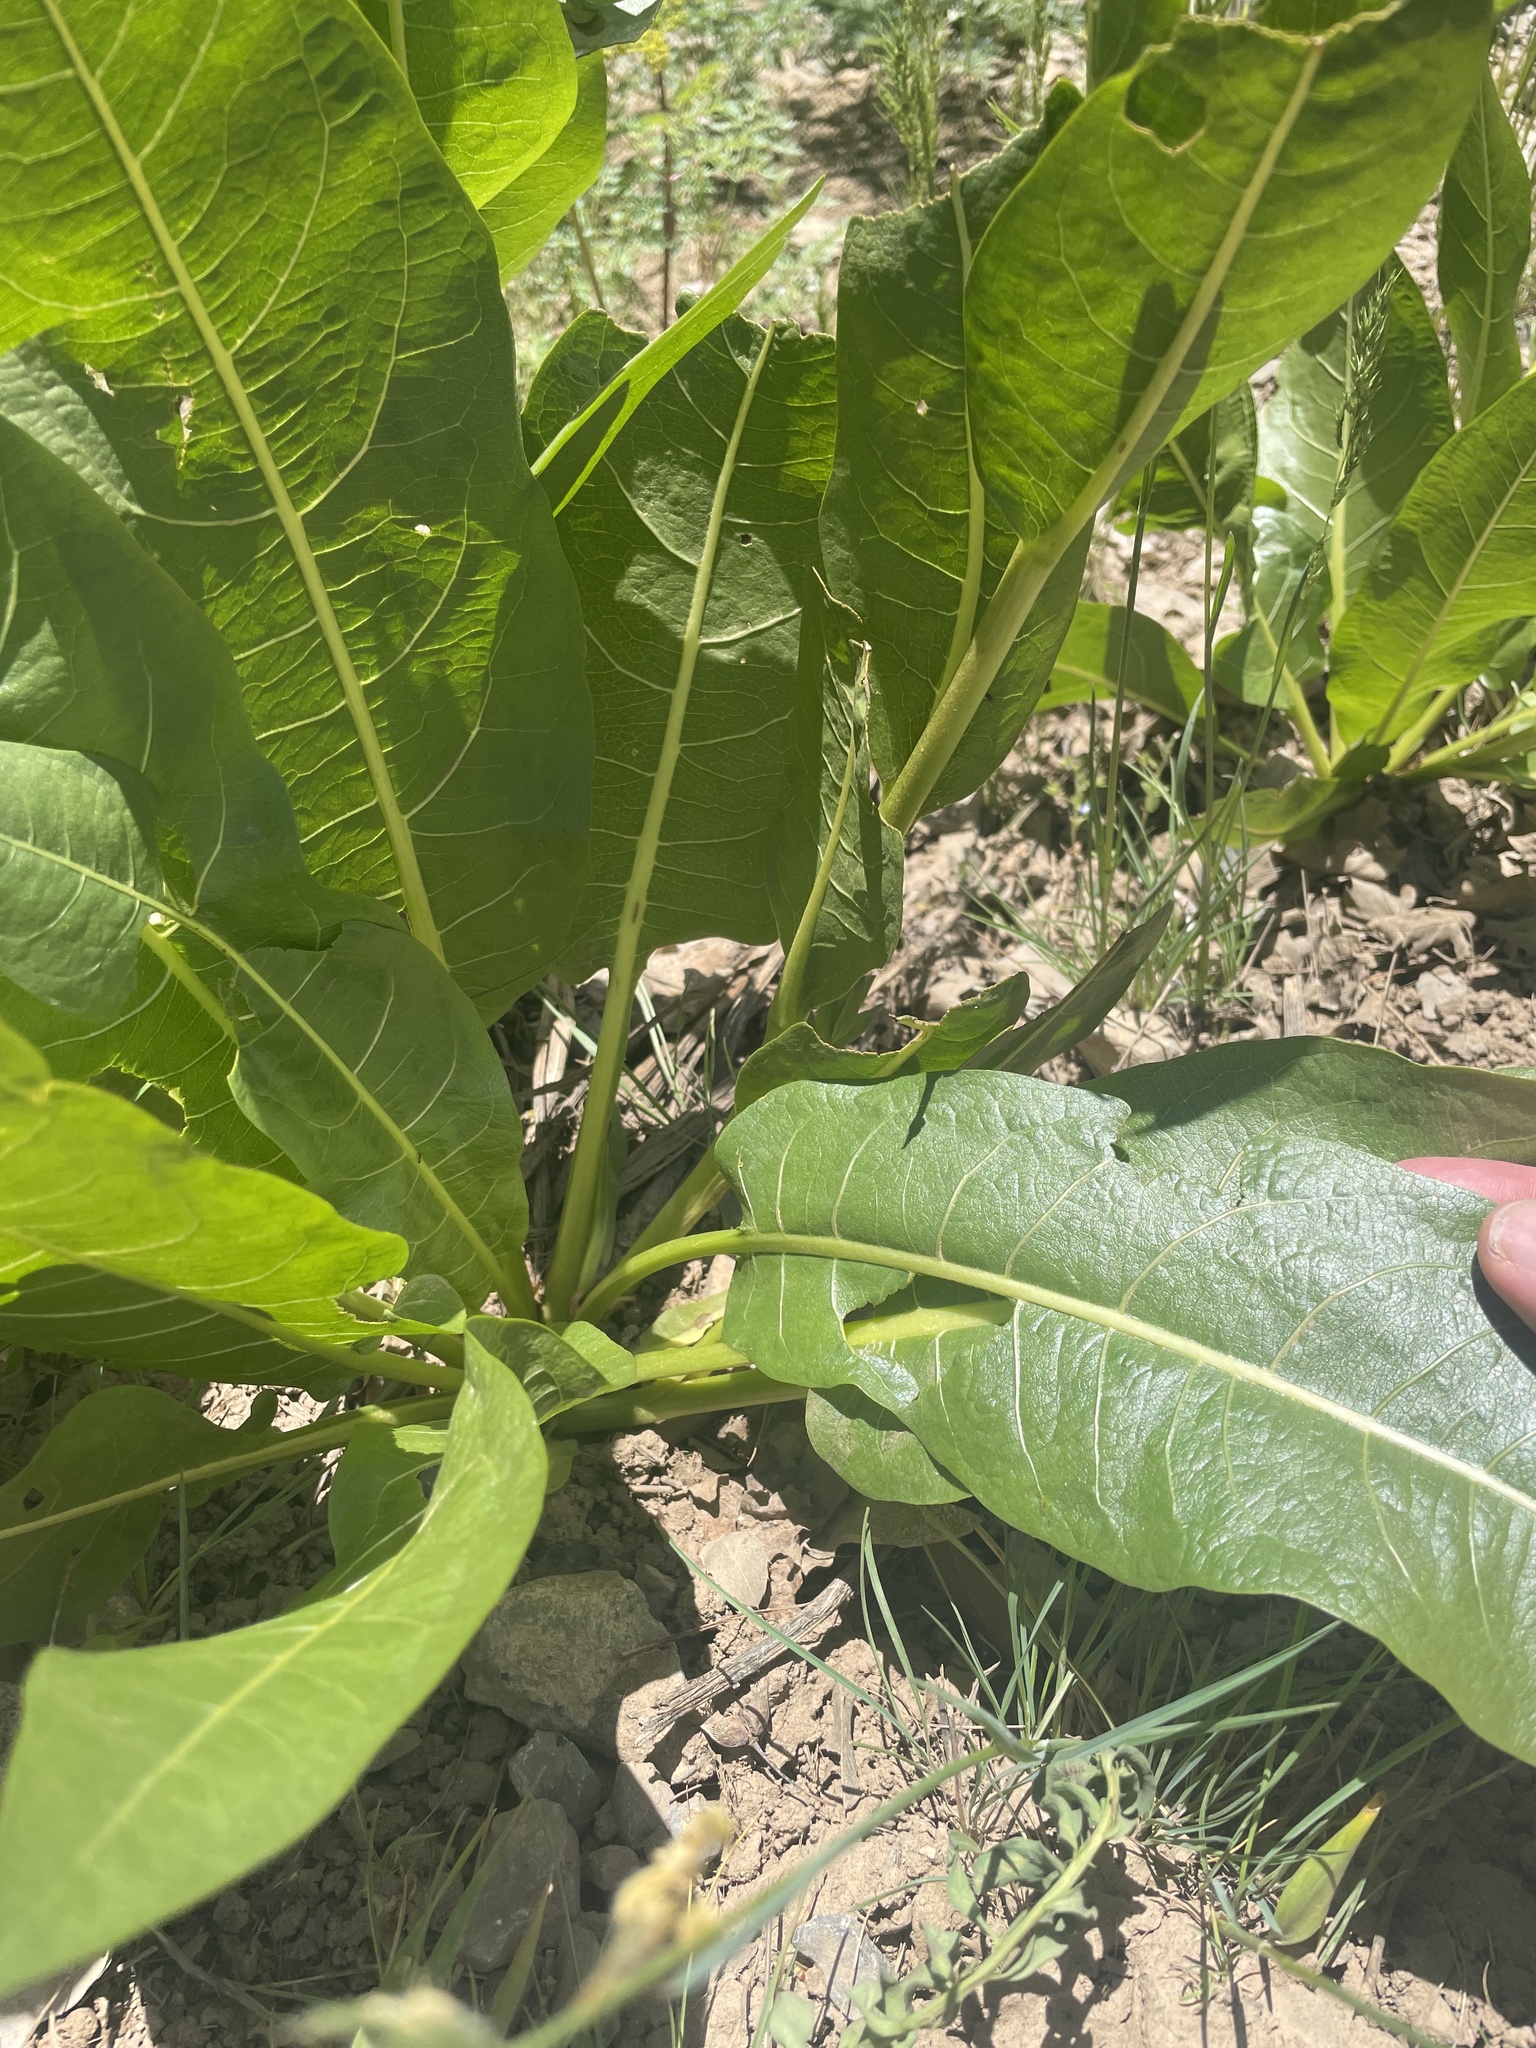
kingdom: Plantae
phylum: Tracheophyta
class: Magnoliopsida
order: Asterales
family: Asteraceae
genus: Wyethia
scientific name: Wyethia amplexicaulis
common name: Northern mule's-ears
